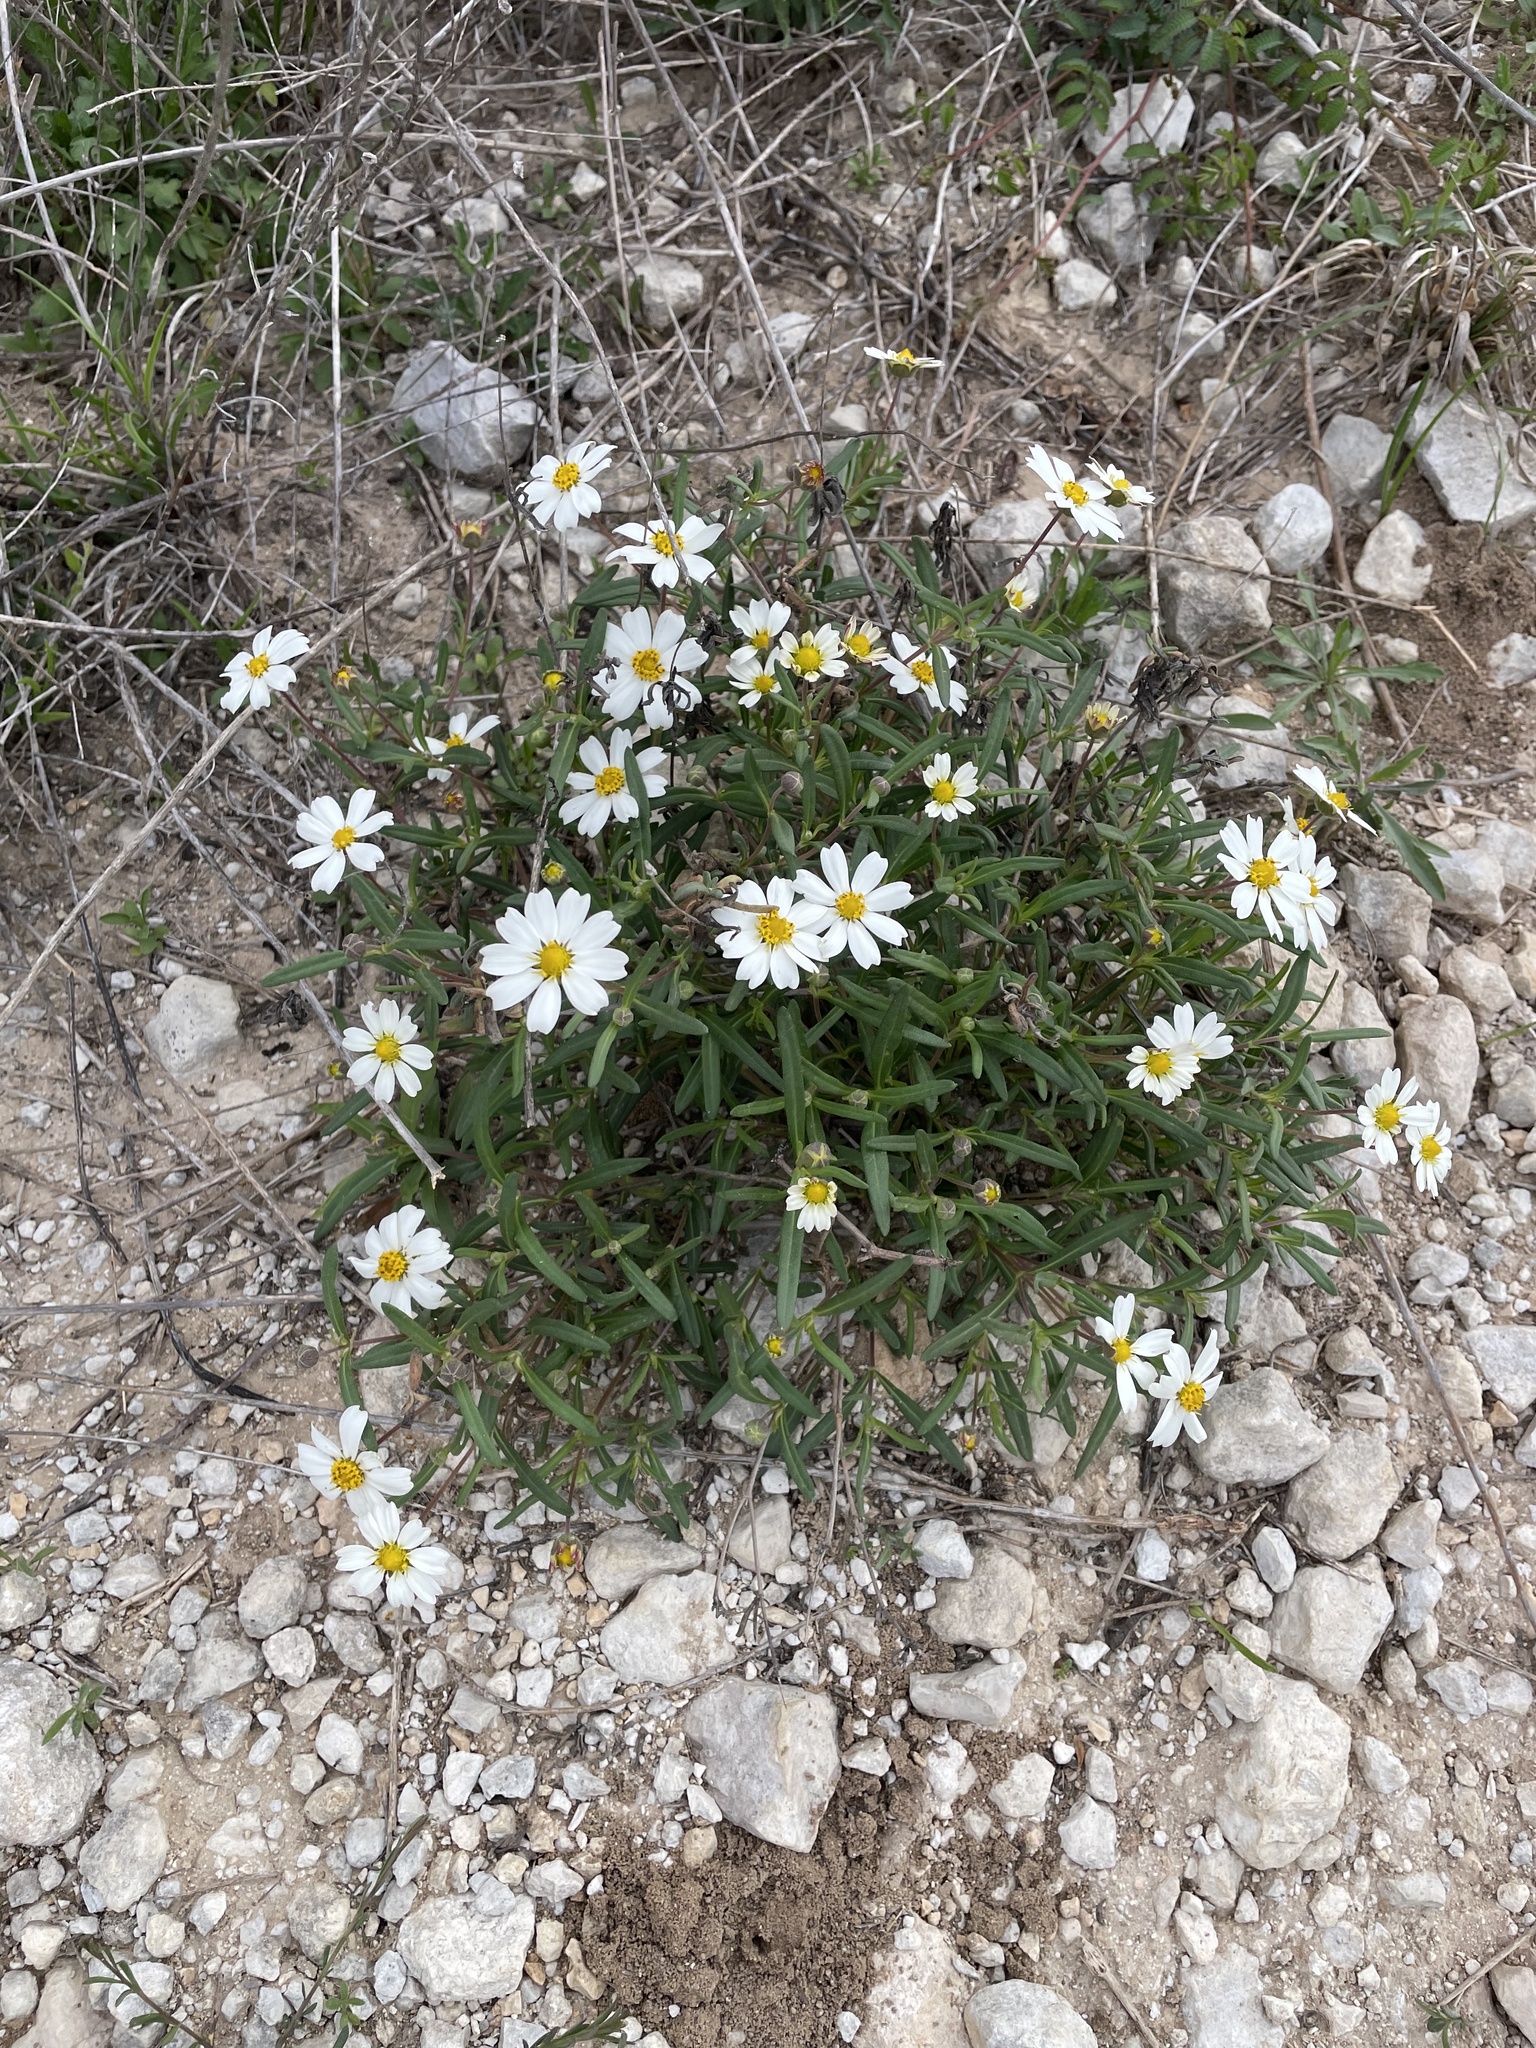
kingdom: Plantae
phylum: Tracheophyta
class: Magnoliopsida
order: Asterales
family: Asteraceae
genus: Melampodium
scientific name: Melampodium leucanthum
